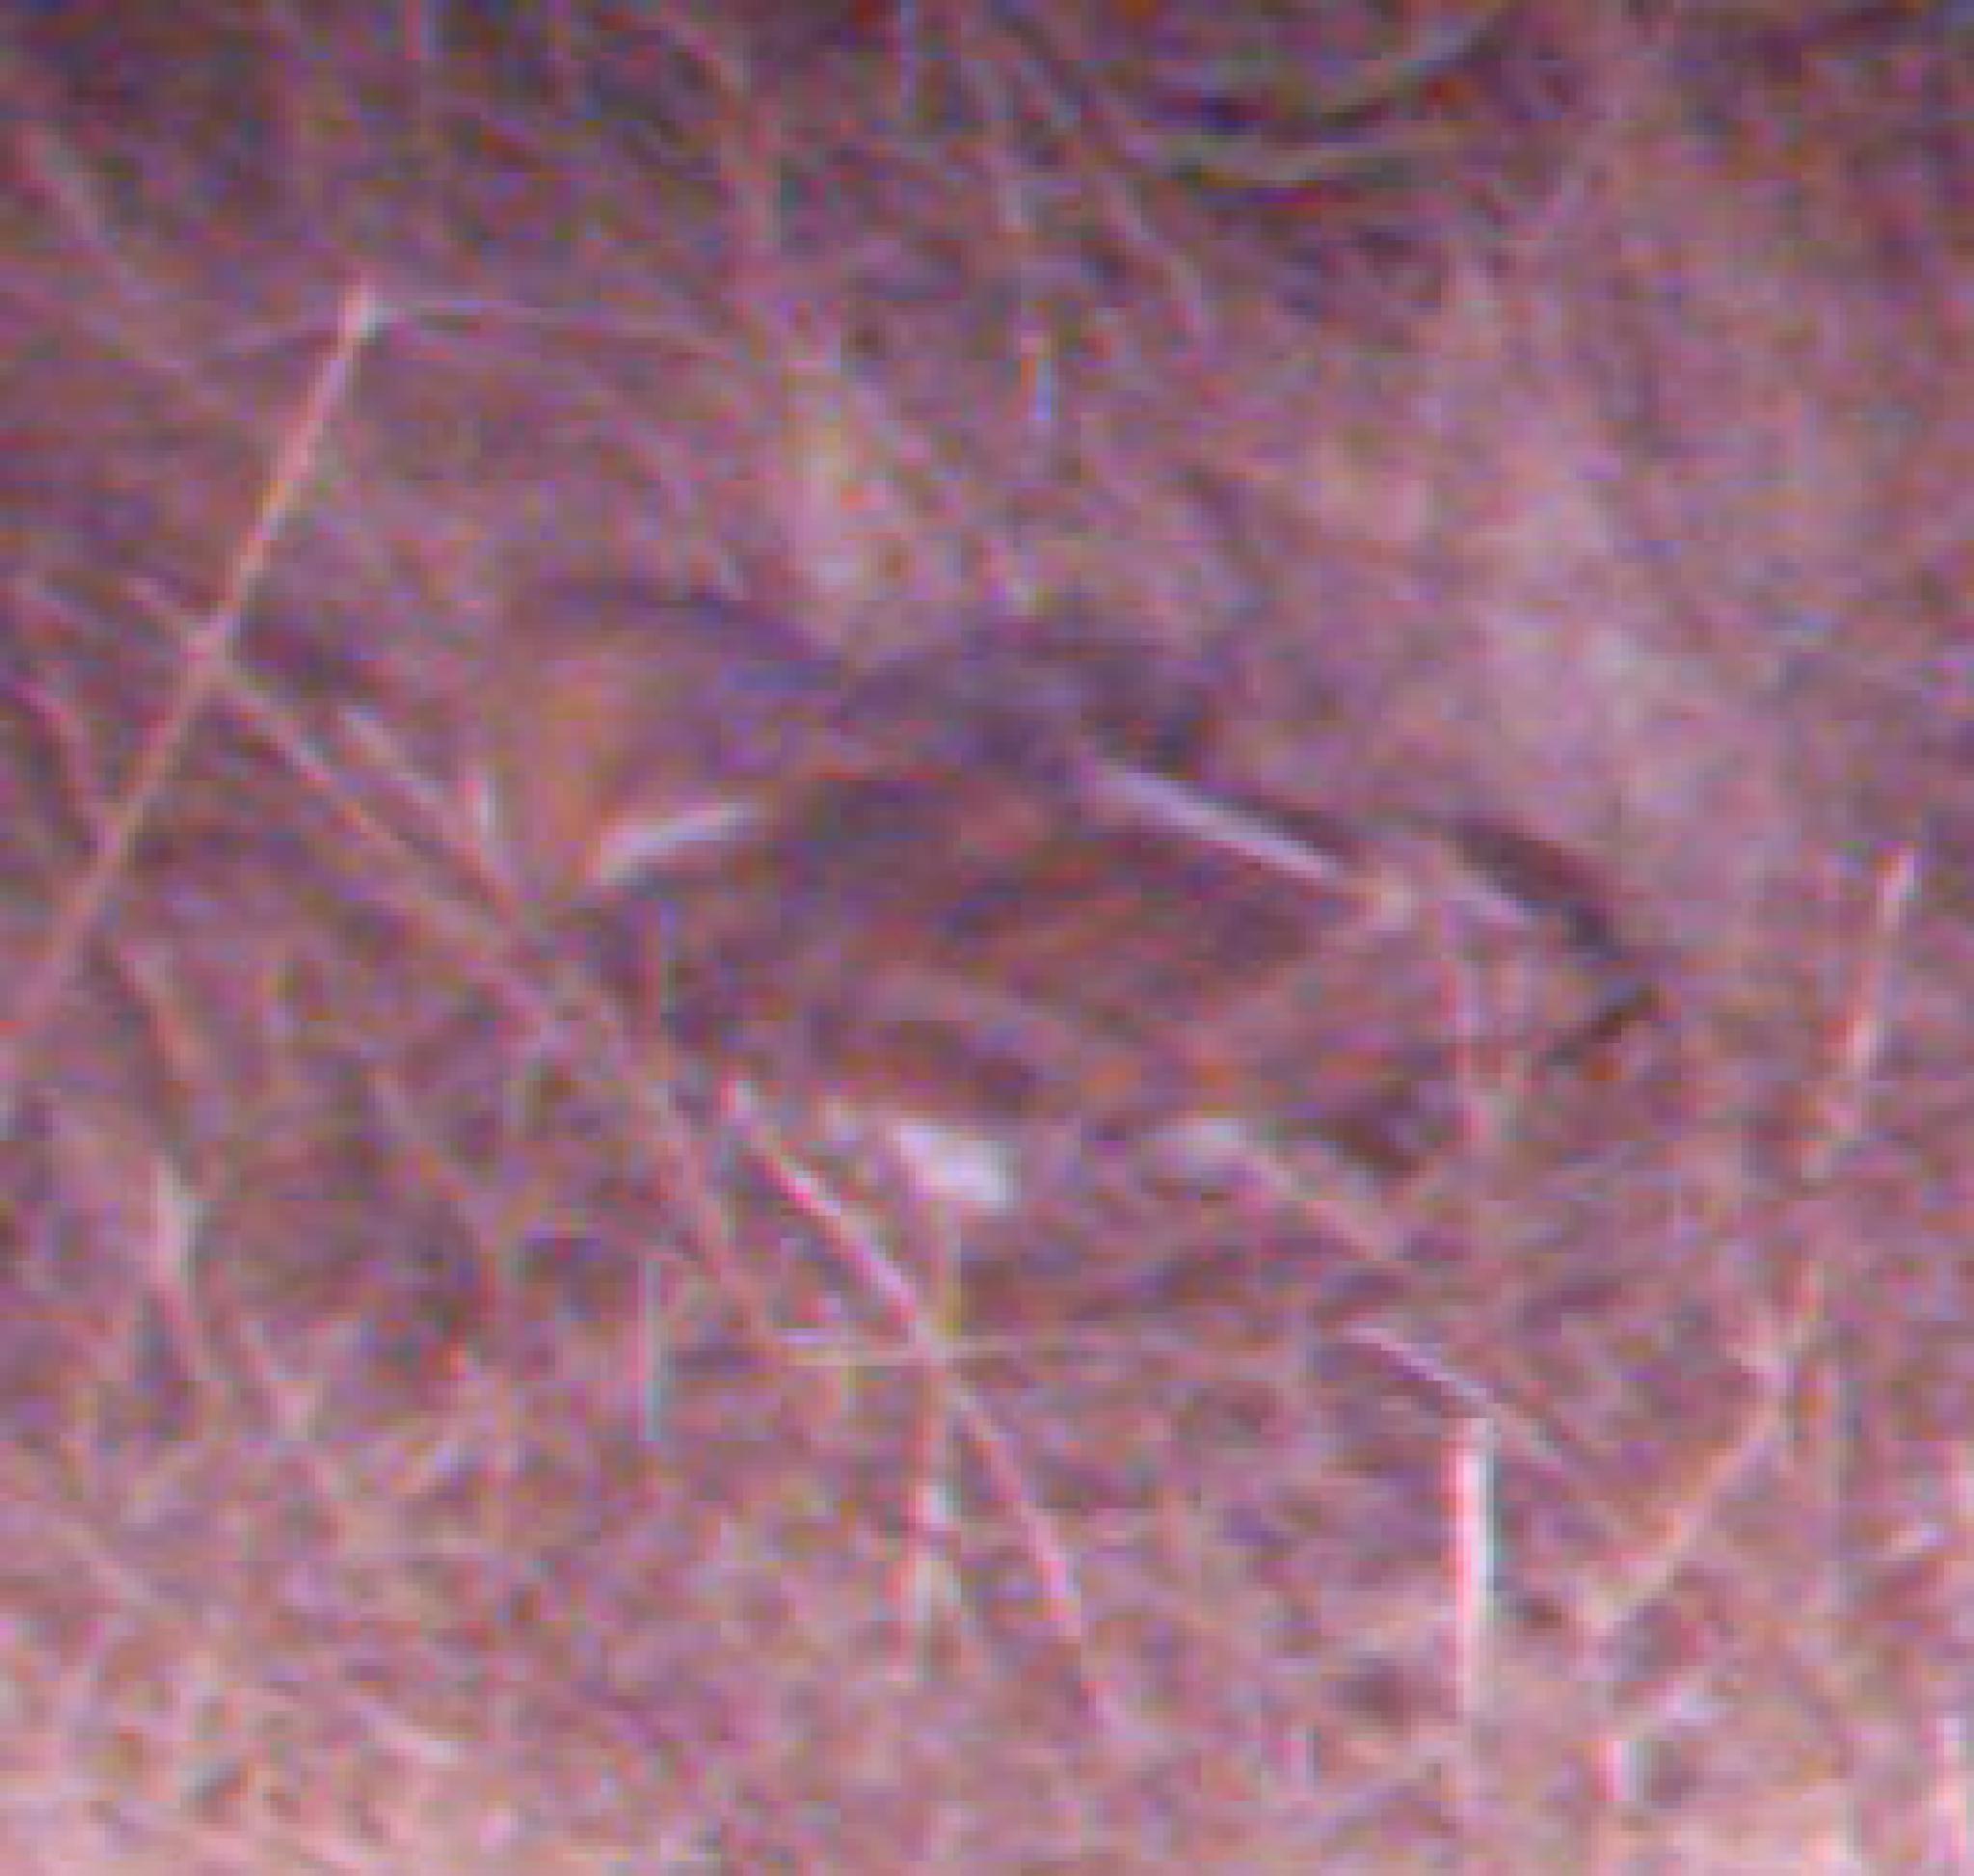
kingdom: Animalia
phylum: Chordata
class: Aves
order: Strigiformes
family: Tytonidae
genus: Tyto
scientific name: Tyto alba
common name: Barn owl
